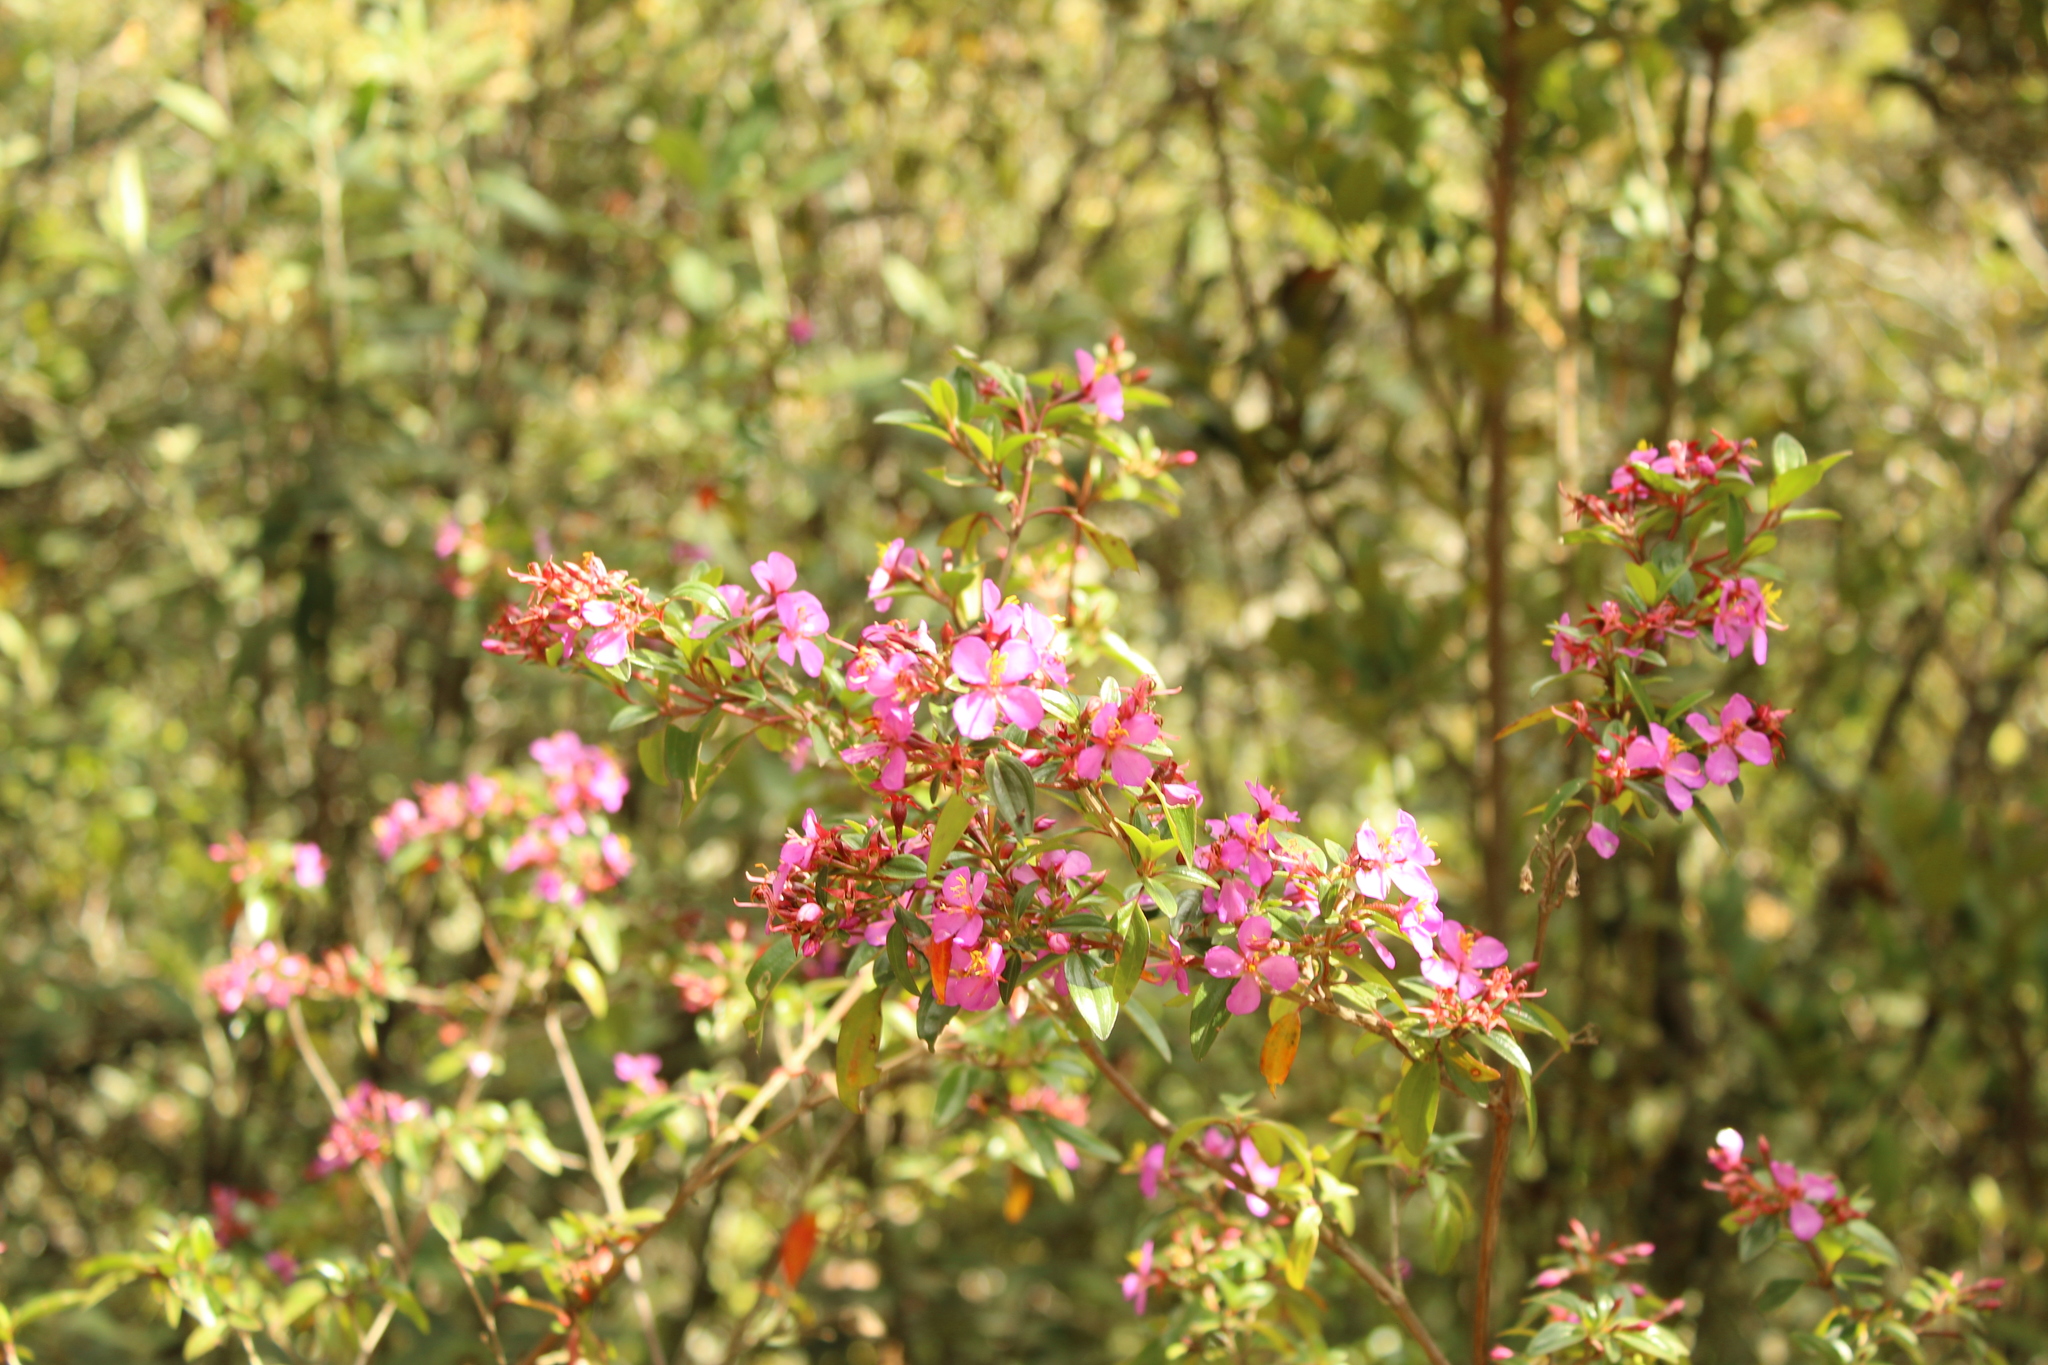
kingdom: Plantae
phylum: Tracheophyta
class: Magnoliopsida
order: Myrtales
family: Melastomataceae
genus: Monochaetum
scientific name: Monochaetum myrtoideum
